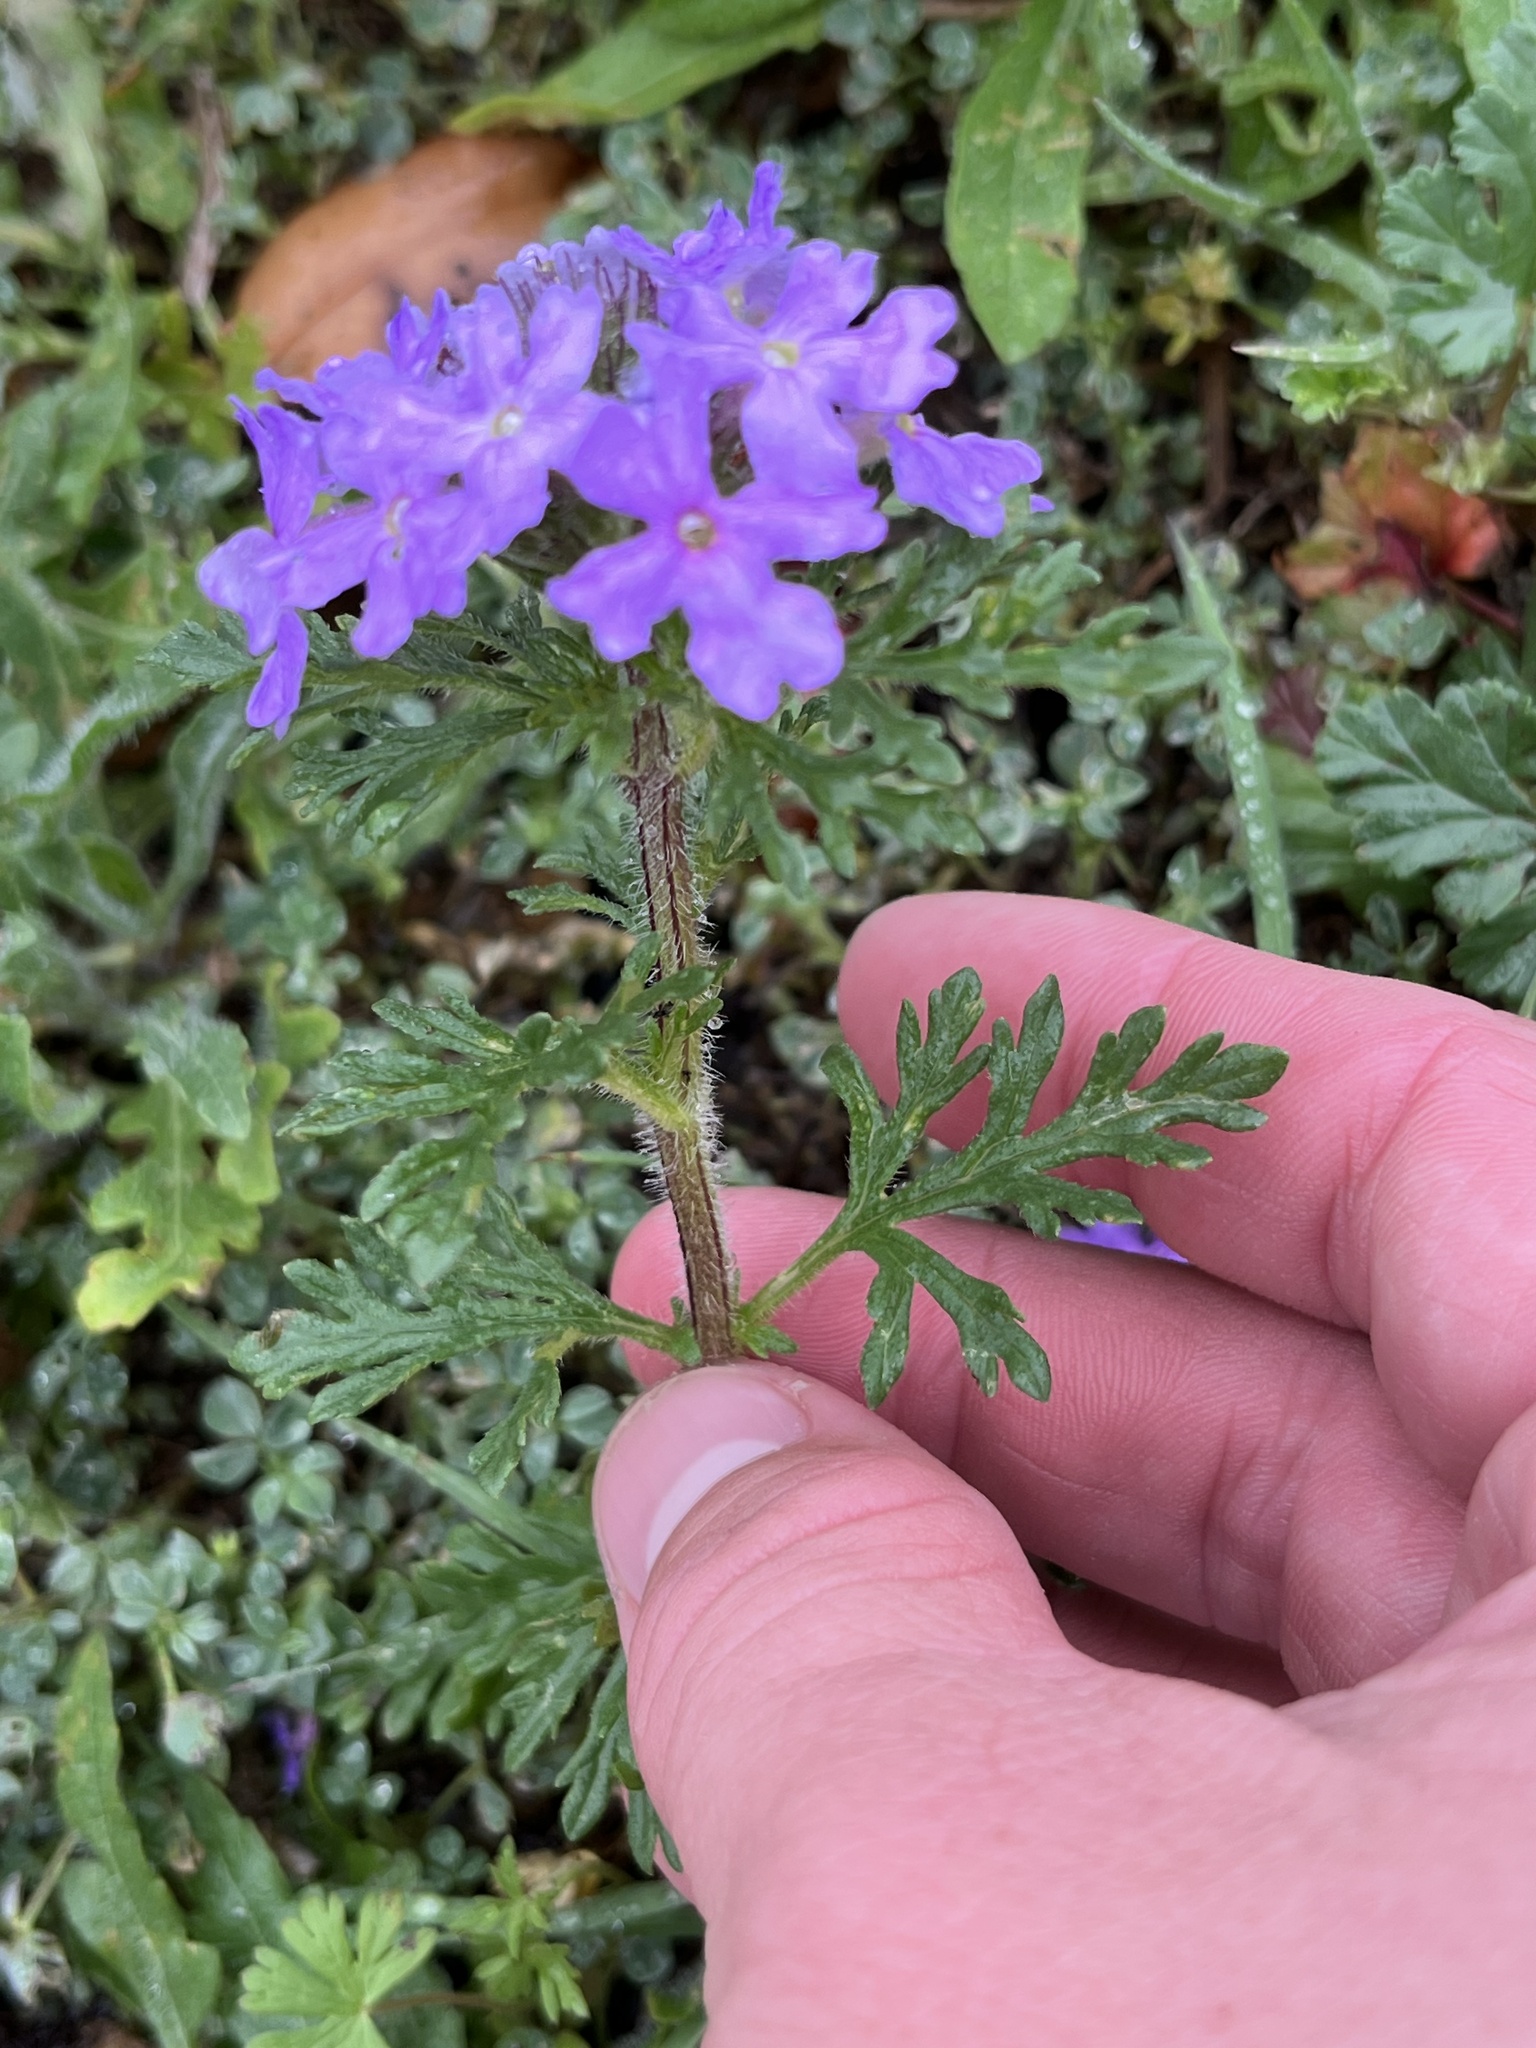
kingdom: Plantae
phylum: Tracheophyta
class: Magnoliopsida
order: Lamiales
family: Verbenaceae
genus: Verbena
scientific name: Verbena bipinnatifida
